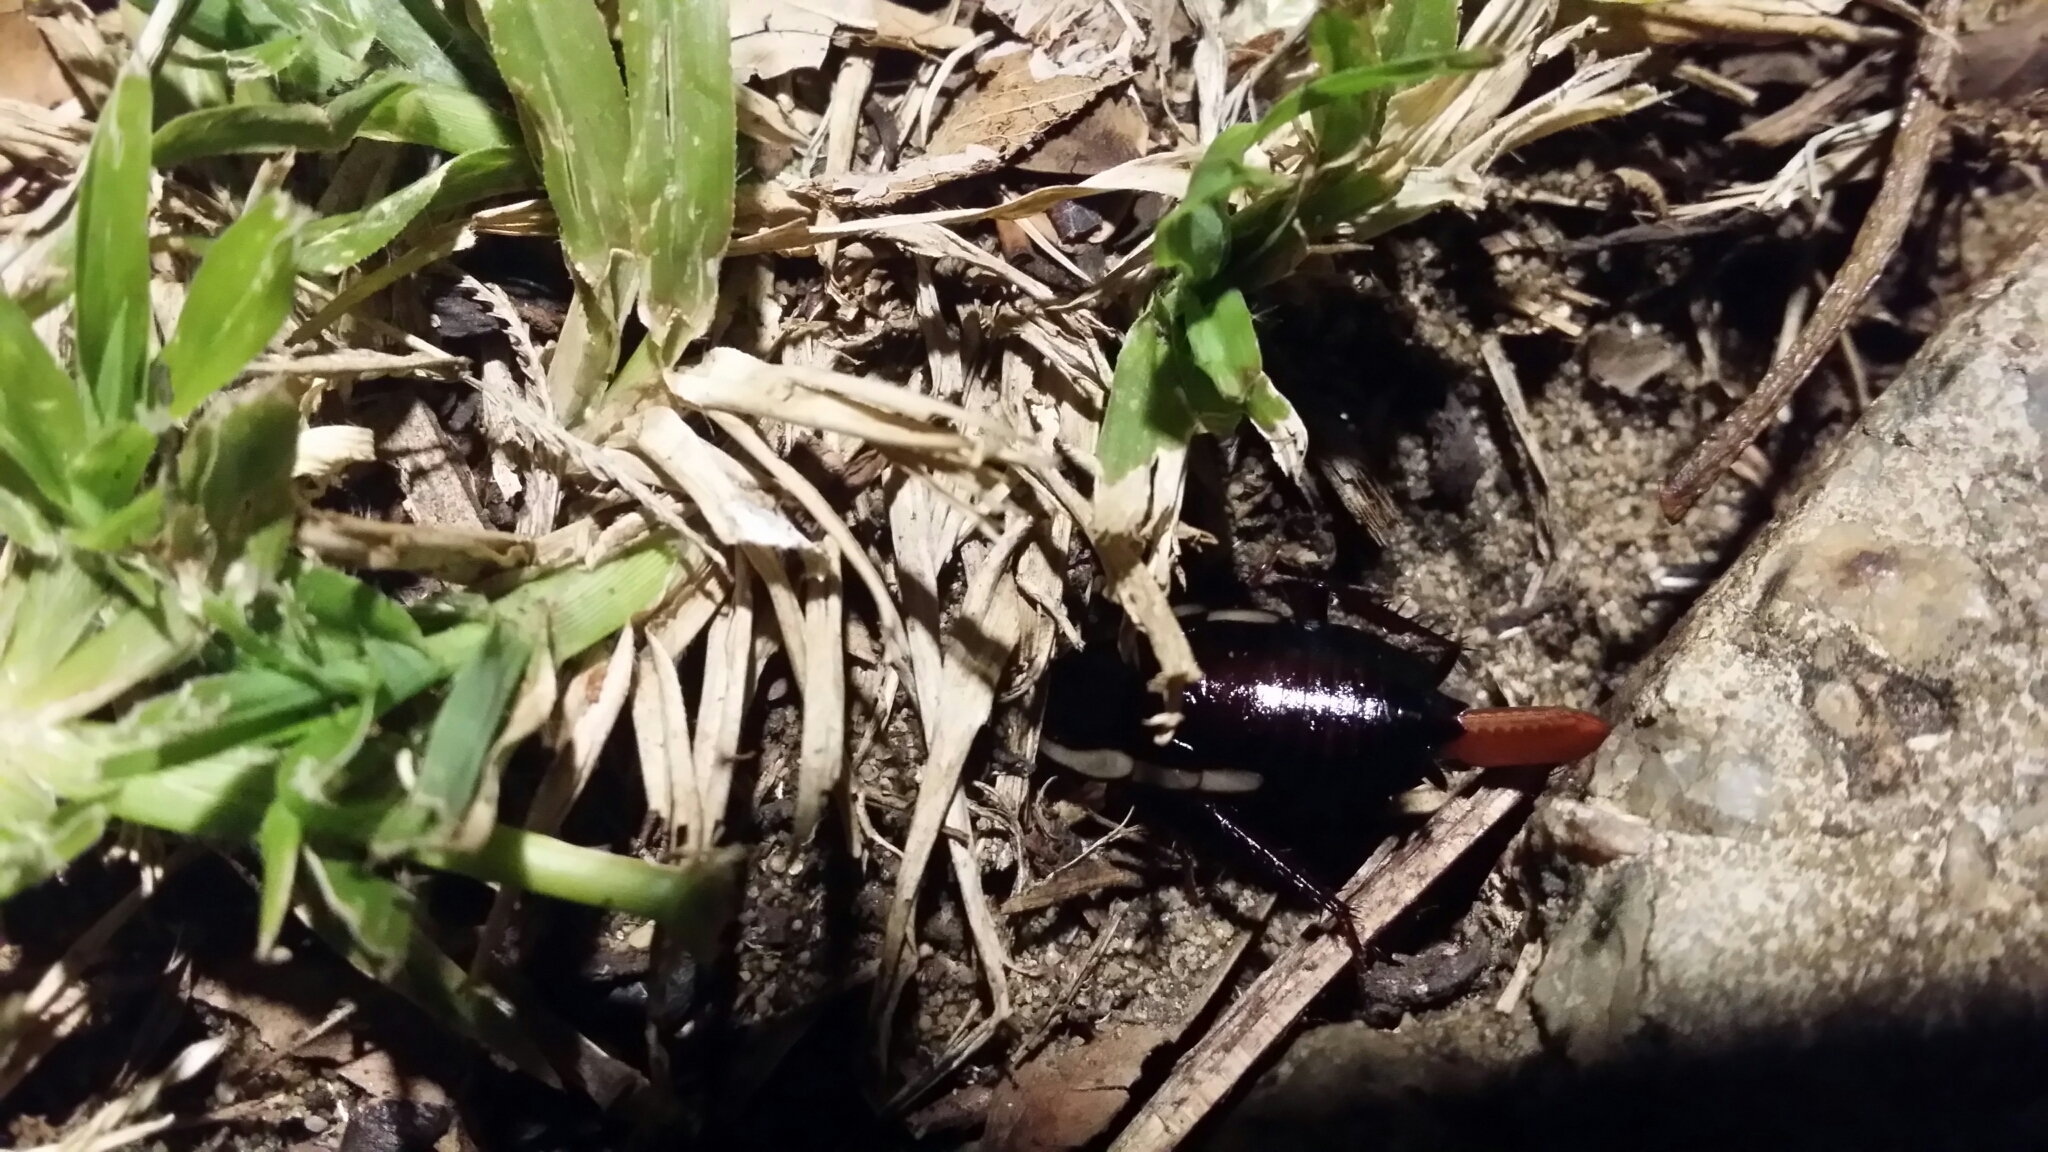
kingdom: Animalia
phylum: Arthropoda
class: Insecta
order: Blattodea
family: Blattidae
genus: Drymaplaneta
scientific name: Drymaplaneta semivitta
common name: Gisborne cockroach
